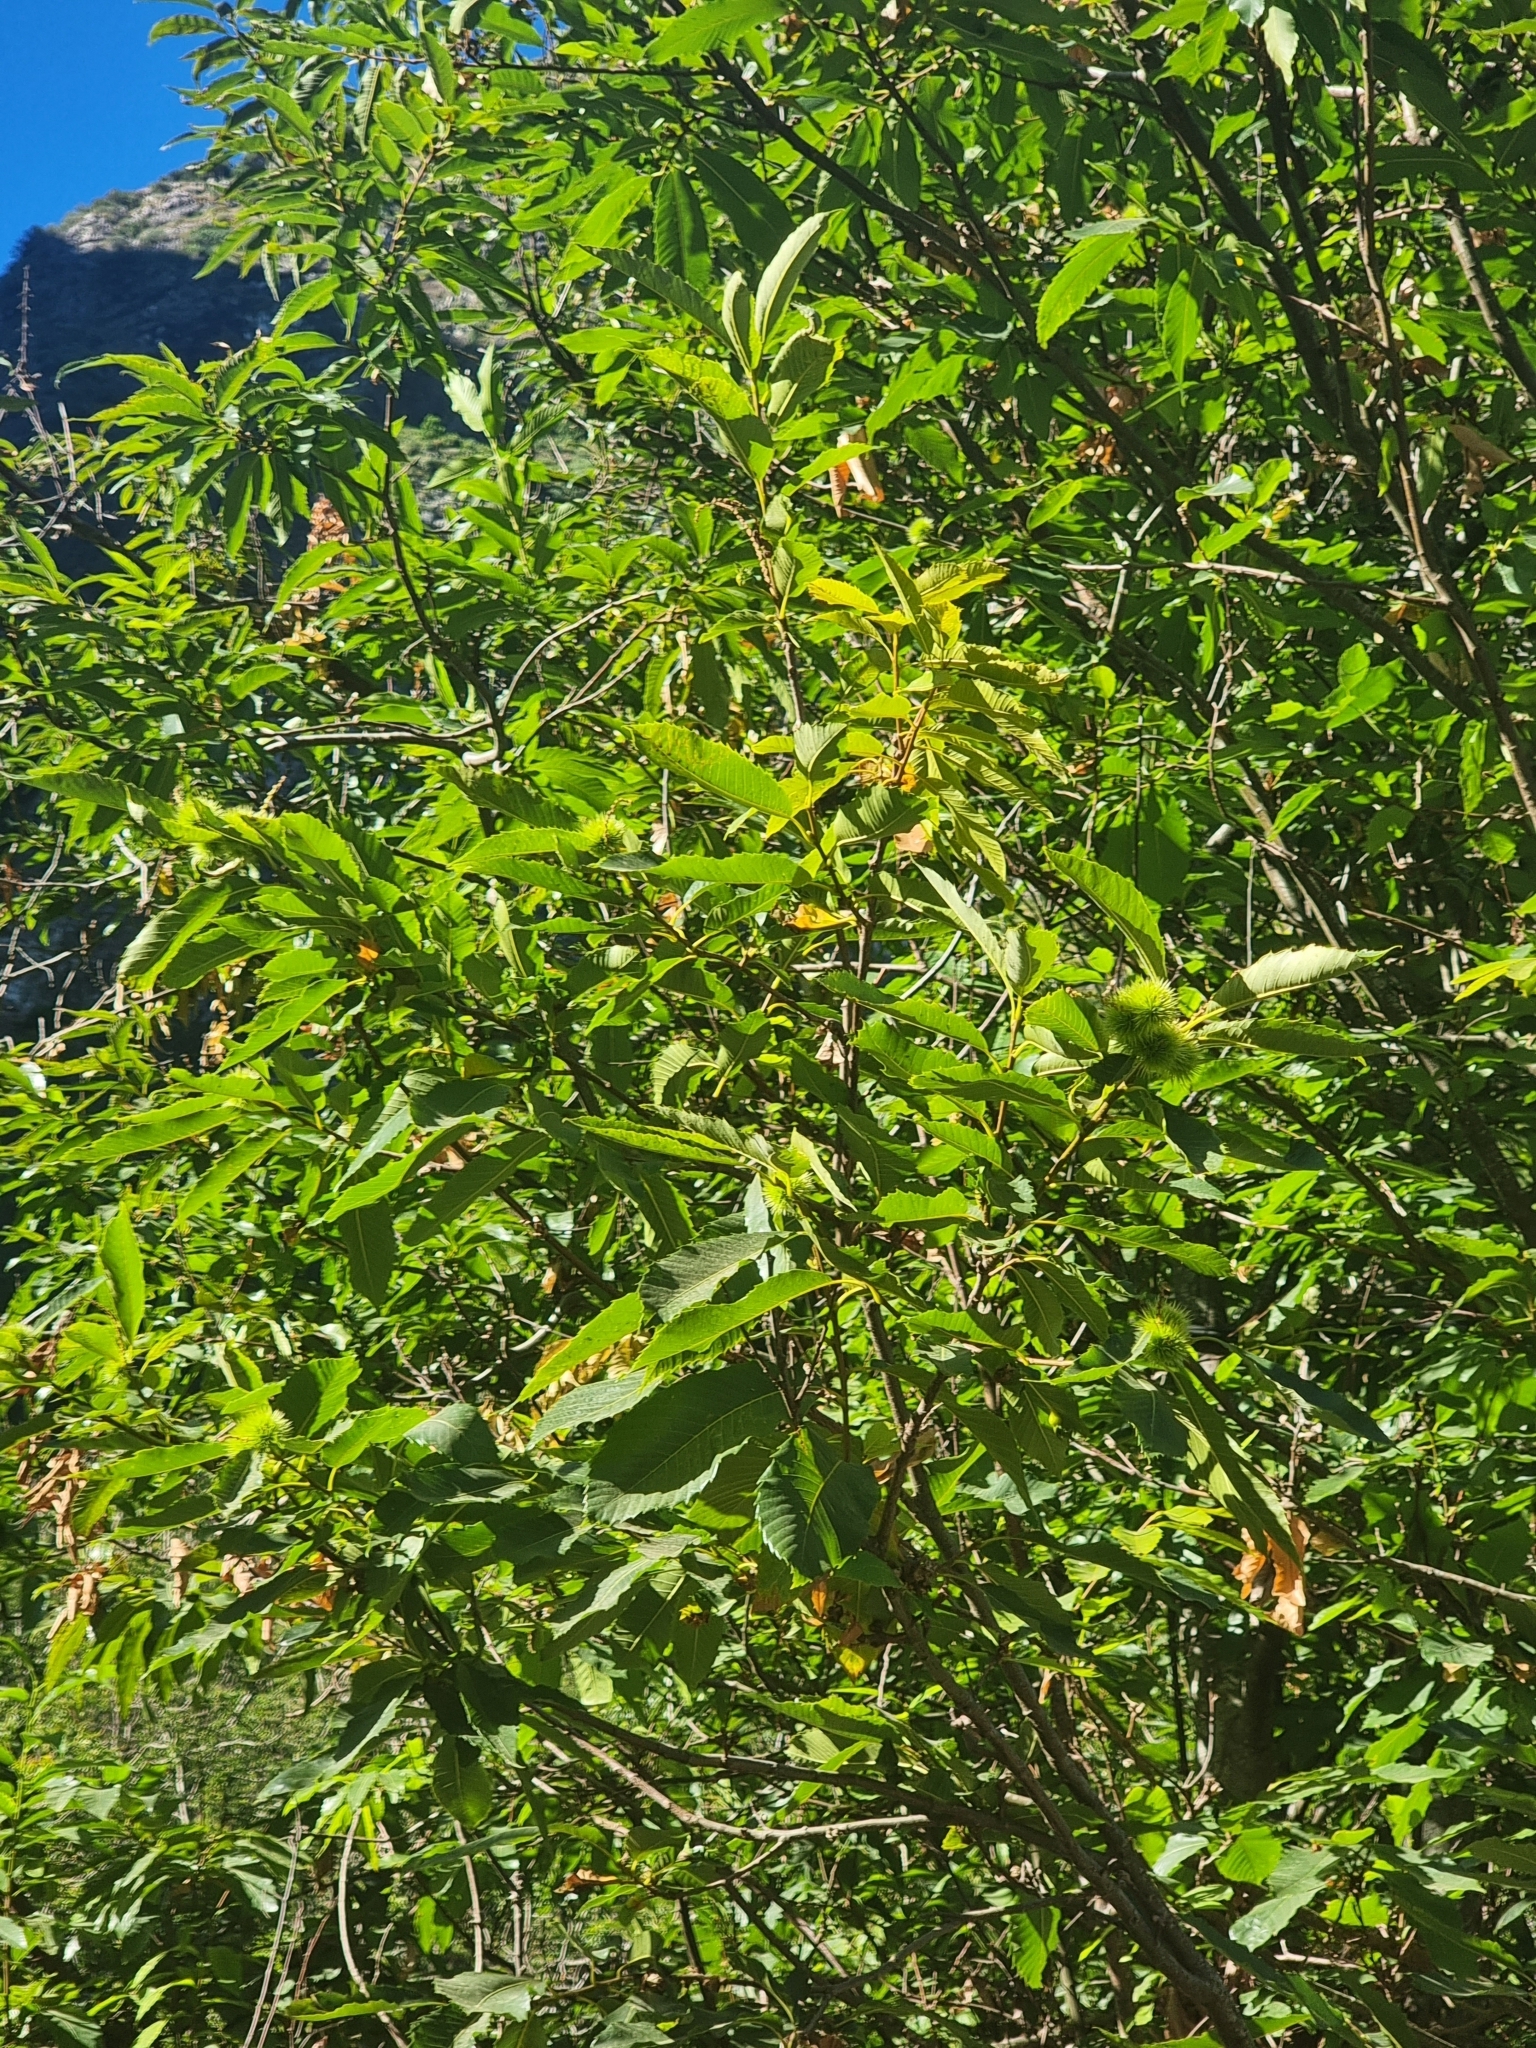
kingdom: Plantae
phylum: Tracheophyta
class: Magnoliopsida
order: Fagales
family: Fagaceae
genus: Castanea
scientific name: Castanea sativa
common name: Sweet chestnut
